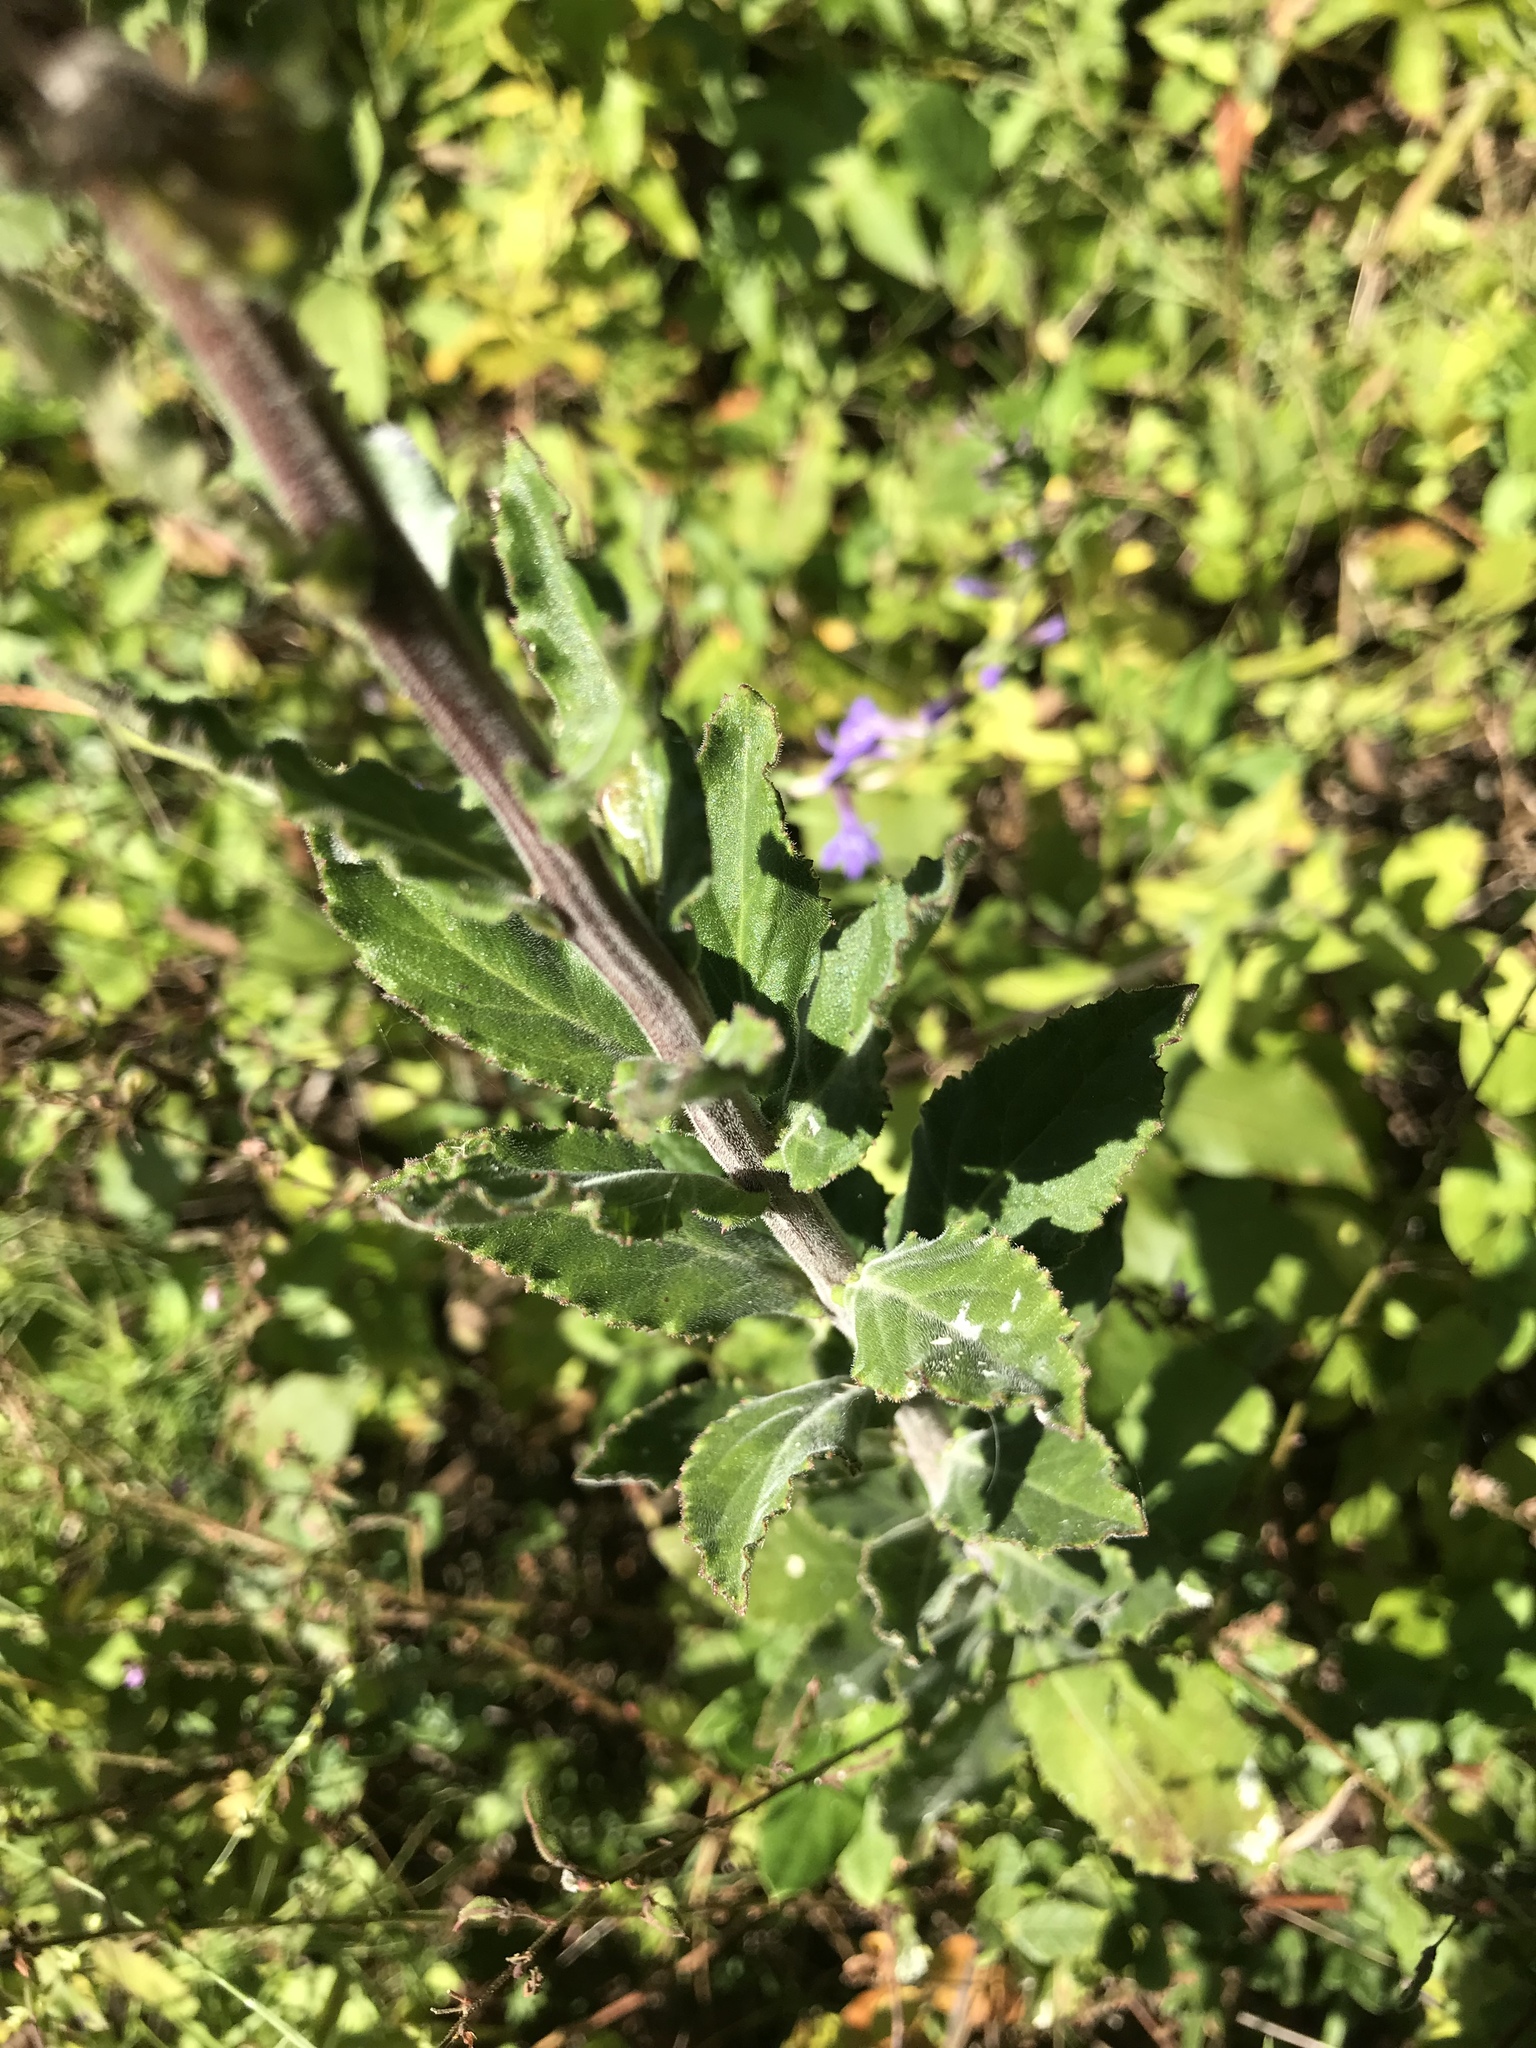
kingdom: Plantae
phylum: Tracheophyta
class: Magnoliopsida
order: Asterales
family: Campanulaceae
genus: Lobelia
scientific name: Lobelia puberula
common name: Purple dewdrop
